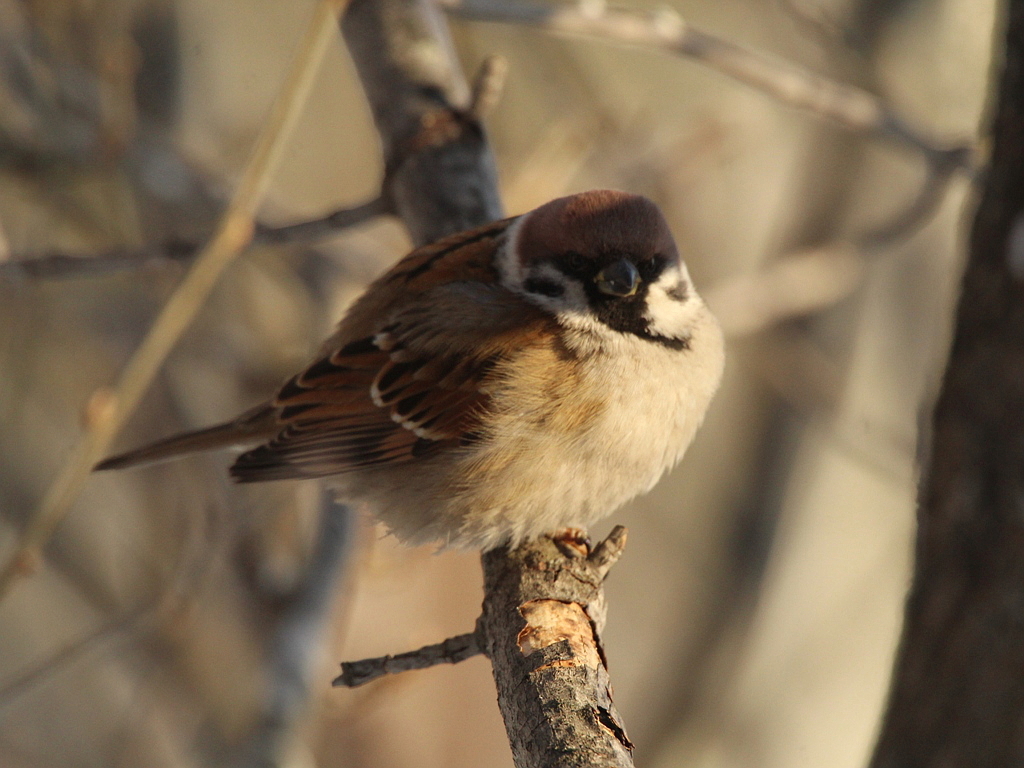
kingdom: Animalia
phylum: Chordata
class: Aves
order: Passeriformes
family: Passeridae
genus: Passer
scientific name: Passer montanus
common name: Eurasian tree sparrow
